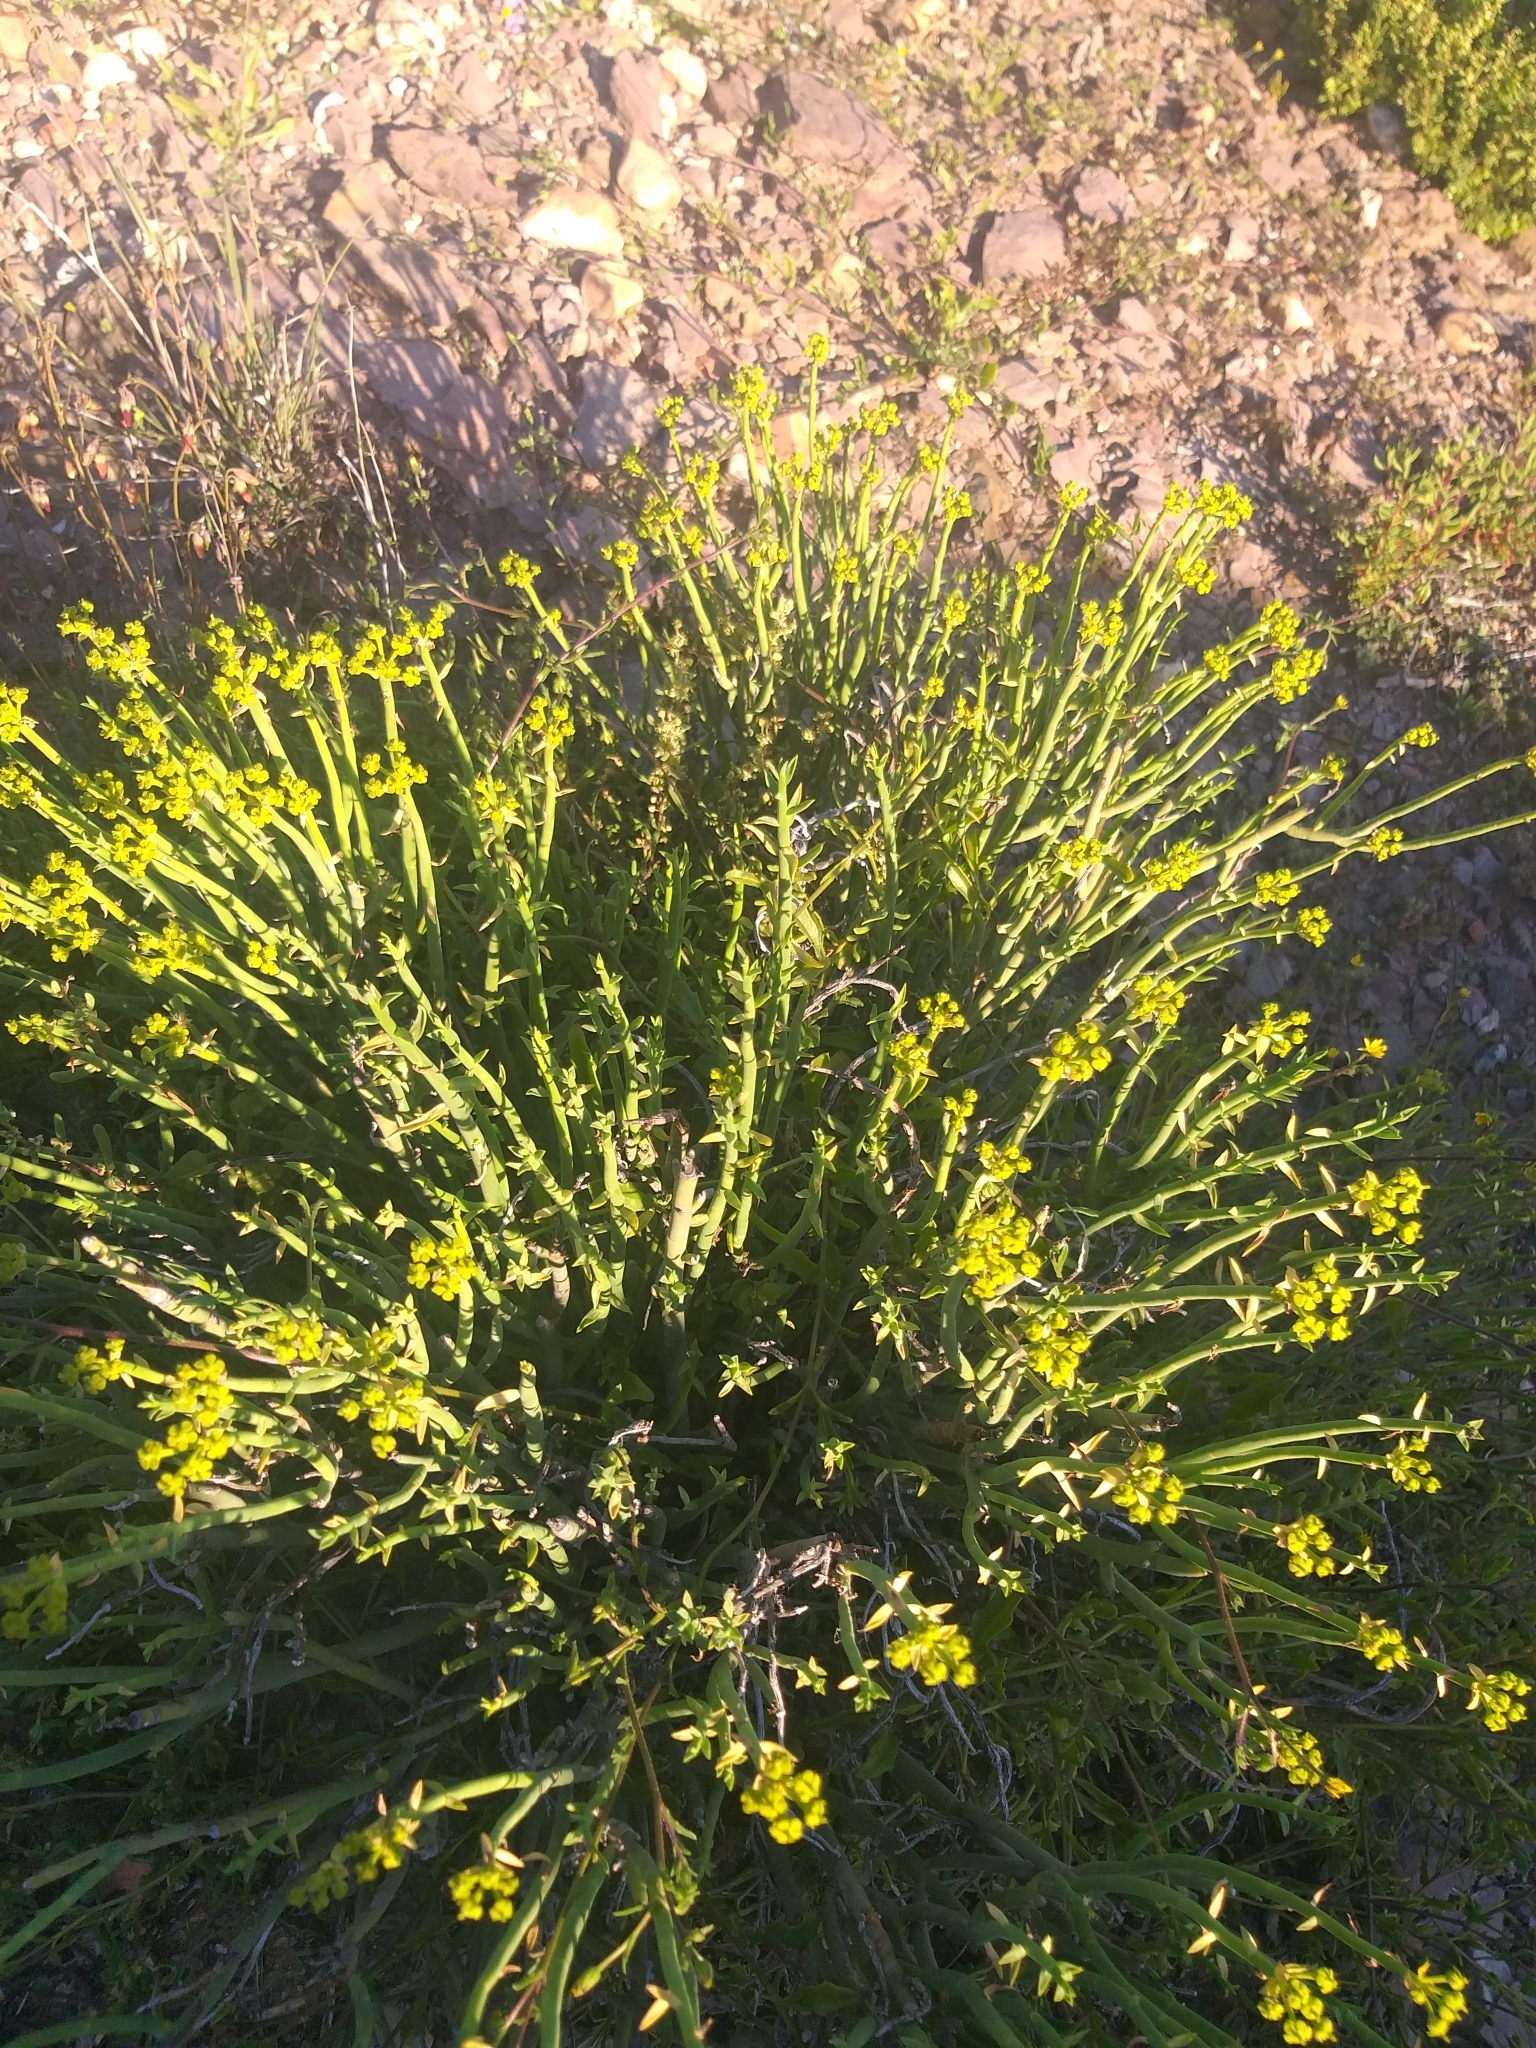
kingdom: Plantae
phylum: Tracheophyta
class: Magnoliopsida
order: Malpighiales
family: Euphorbiaceae
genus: Euphorbia
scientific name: Euphorbia mauritanica
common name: Jackal's-food
